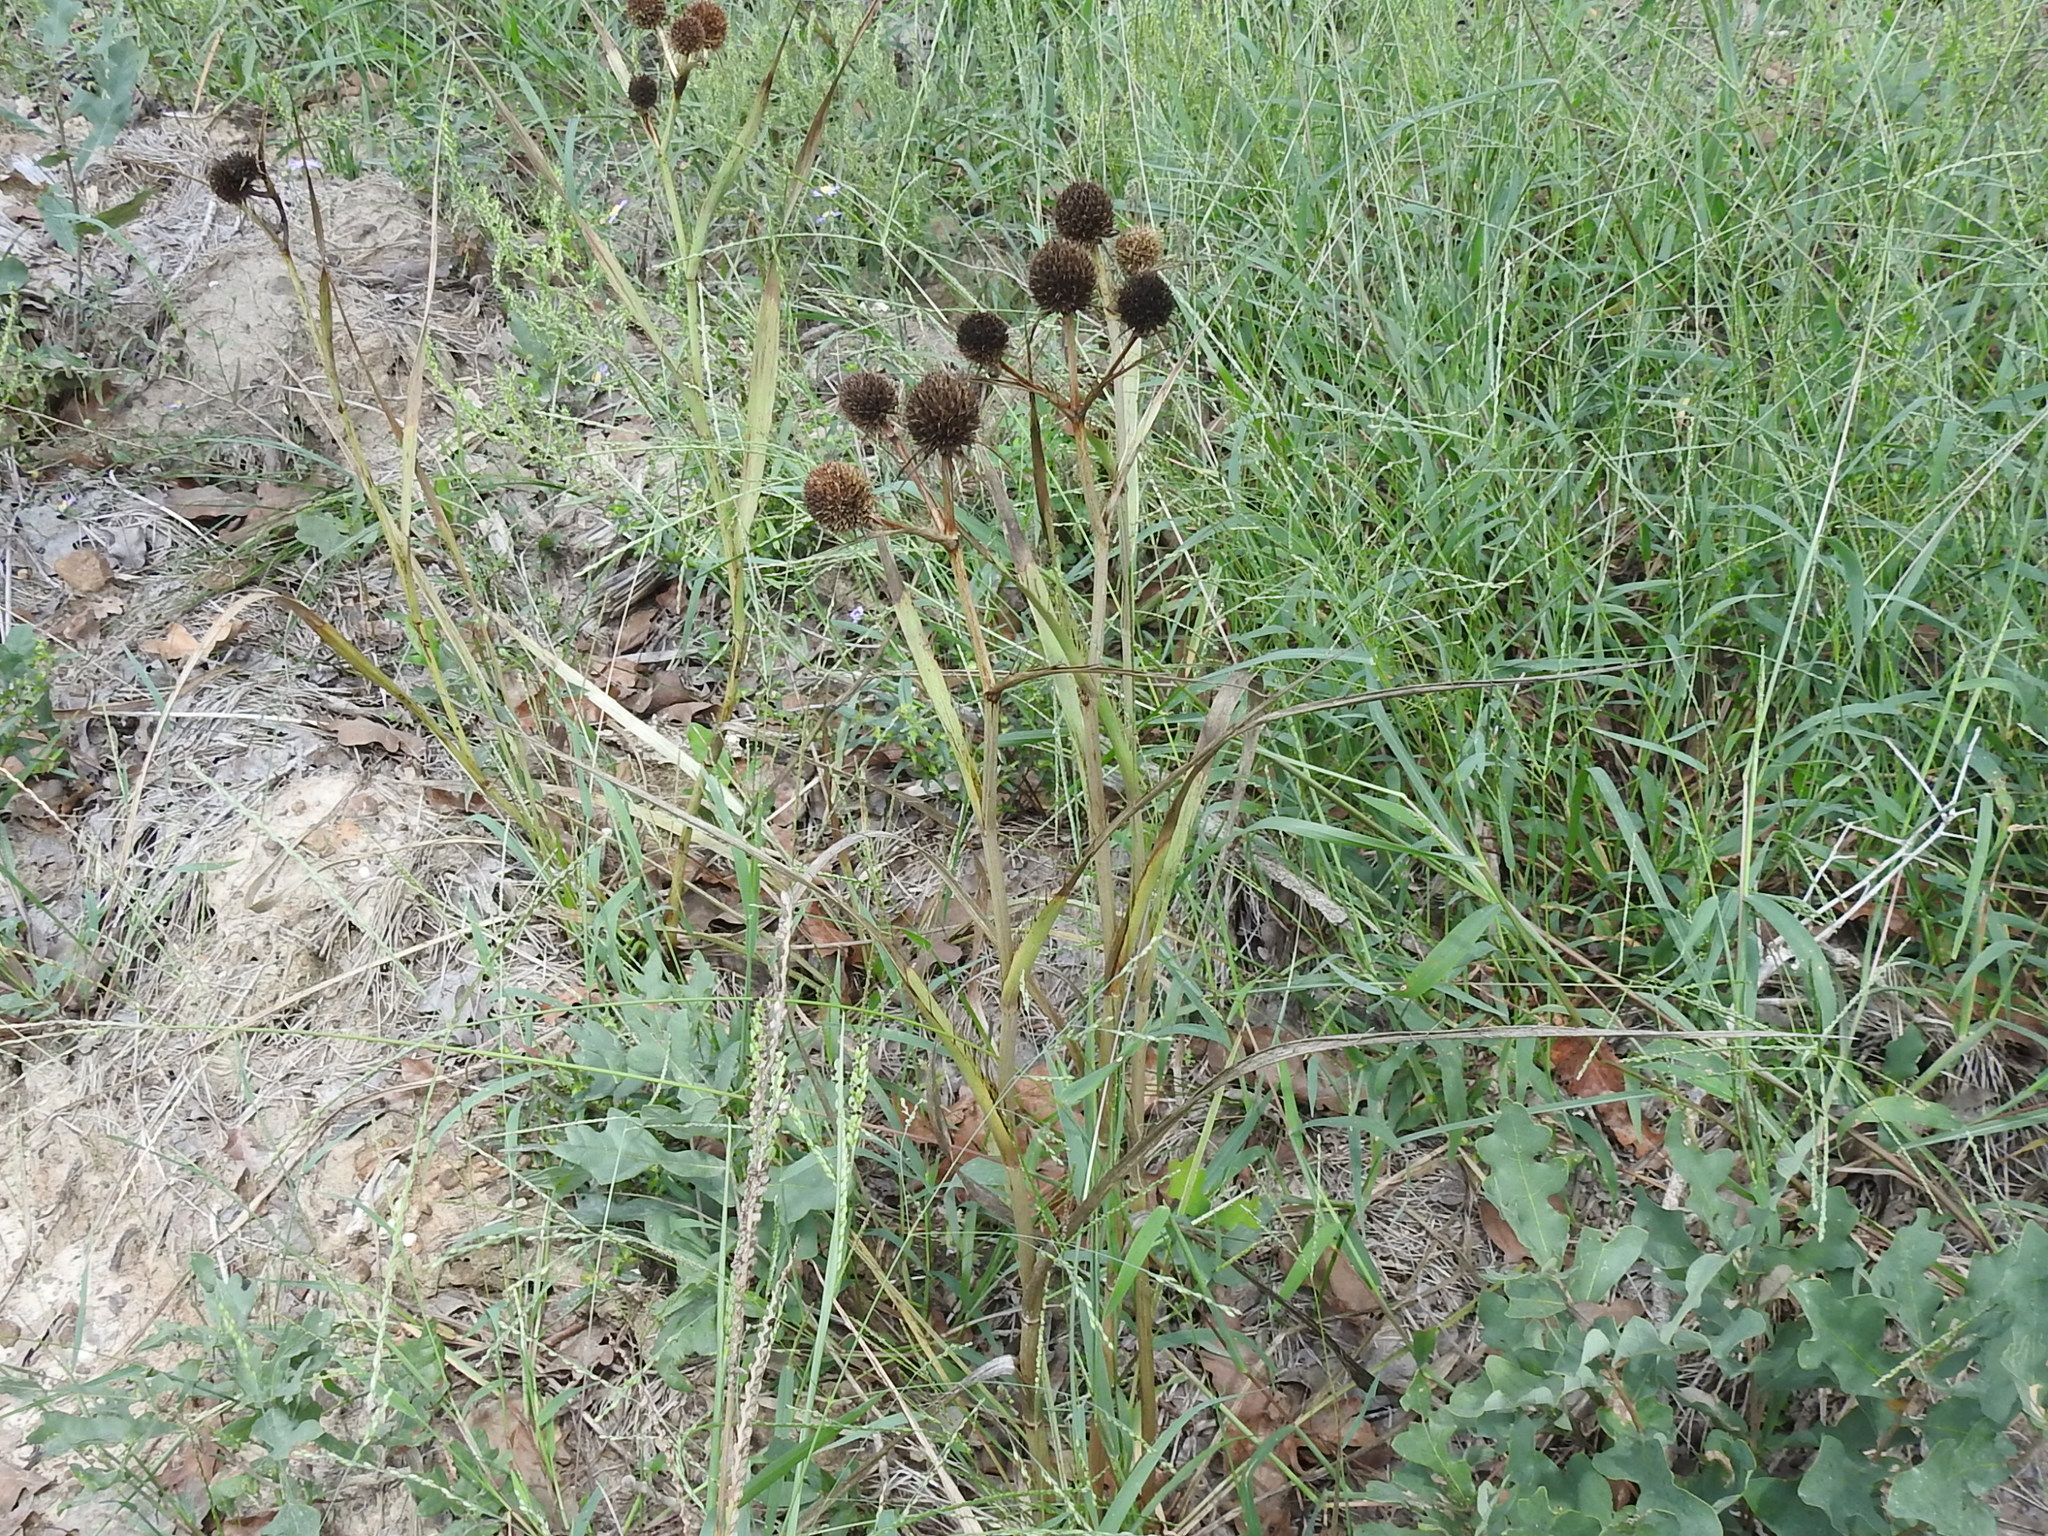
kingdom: Plantae
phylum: Tracheophyta
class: Magnoliopsida
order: Apiales
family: Apiaceae
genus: Eryngium
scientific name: Eryngium yuccifolium
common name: Button eryngo
